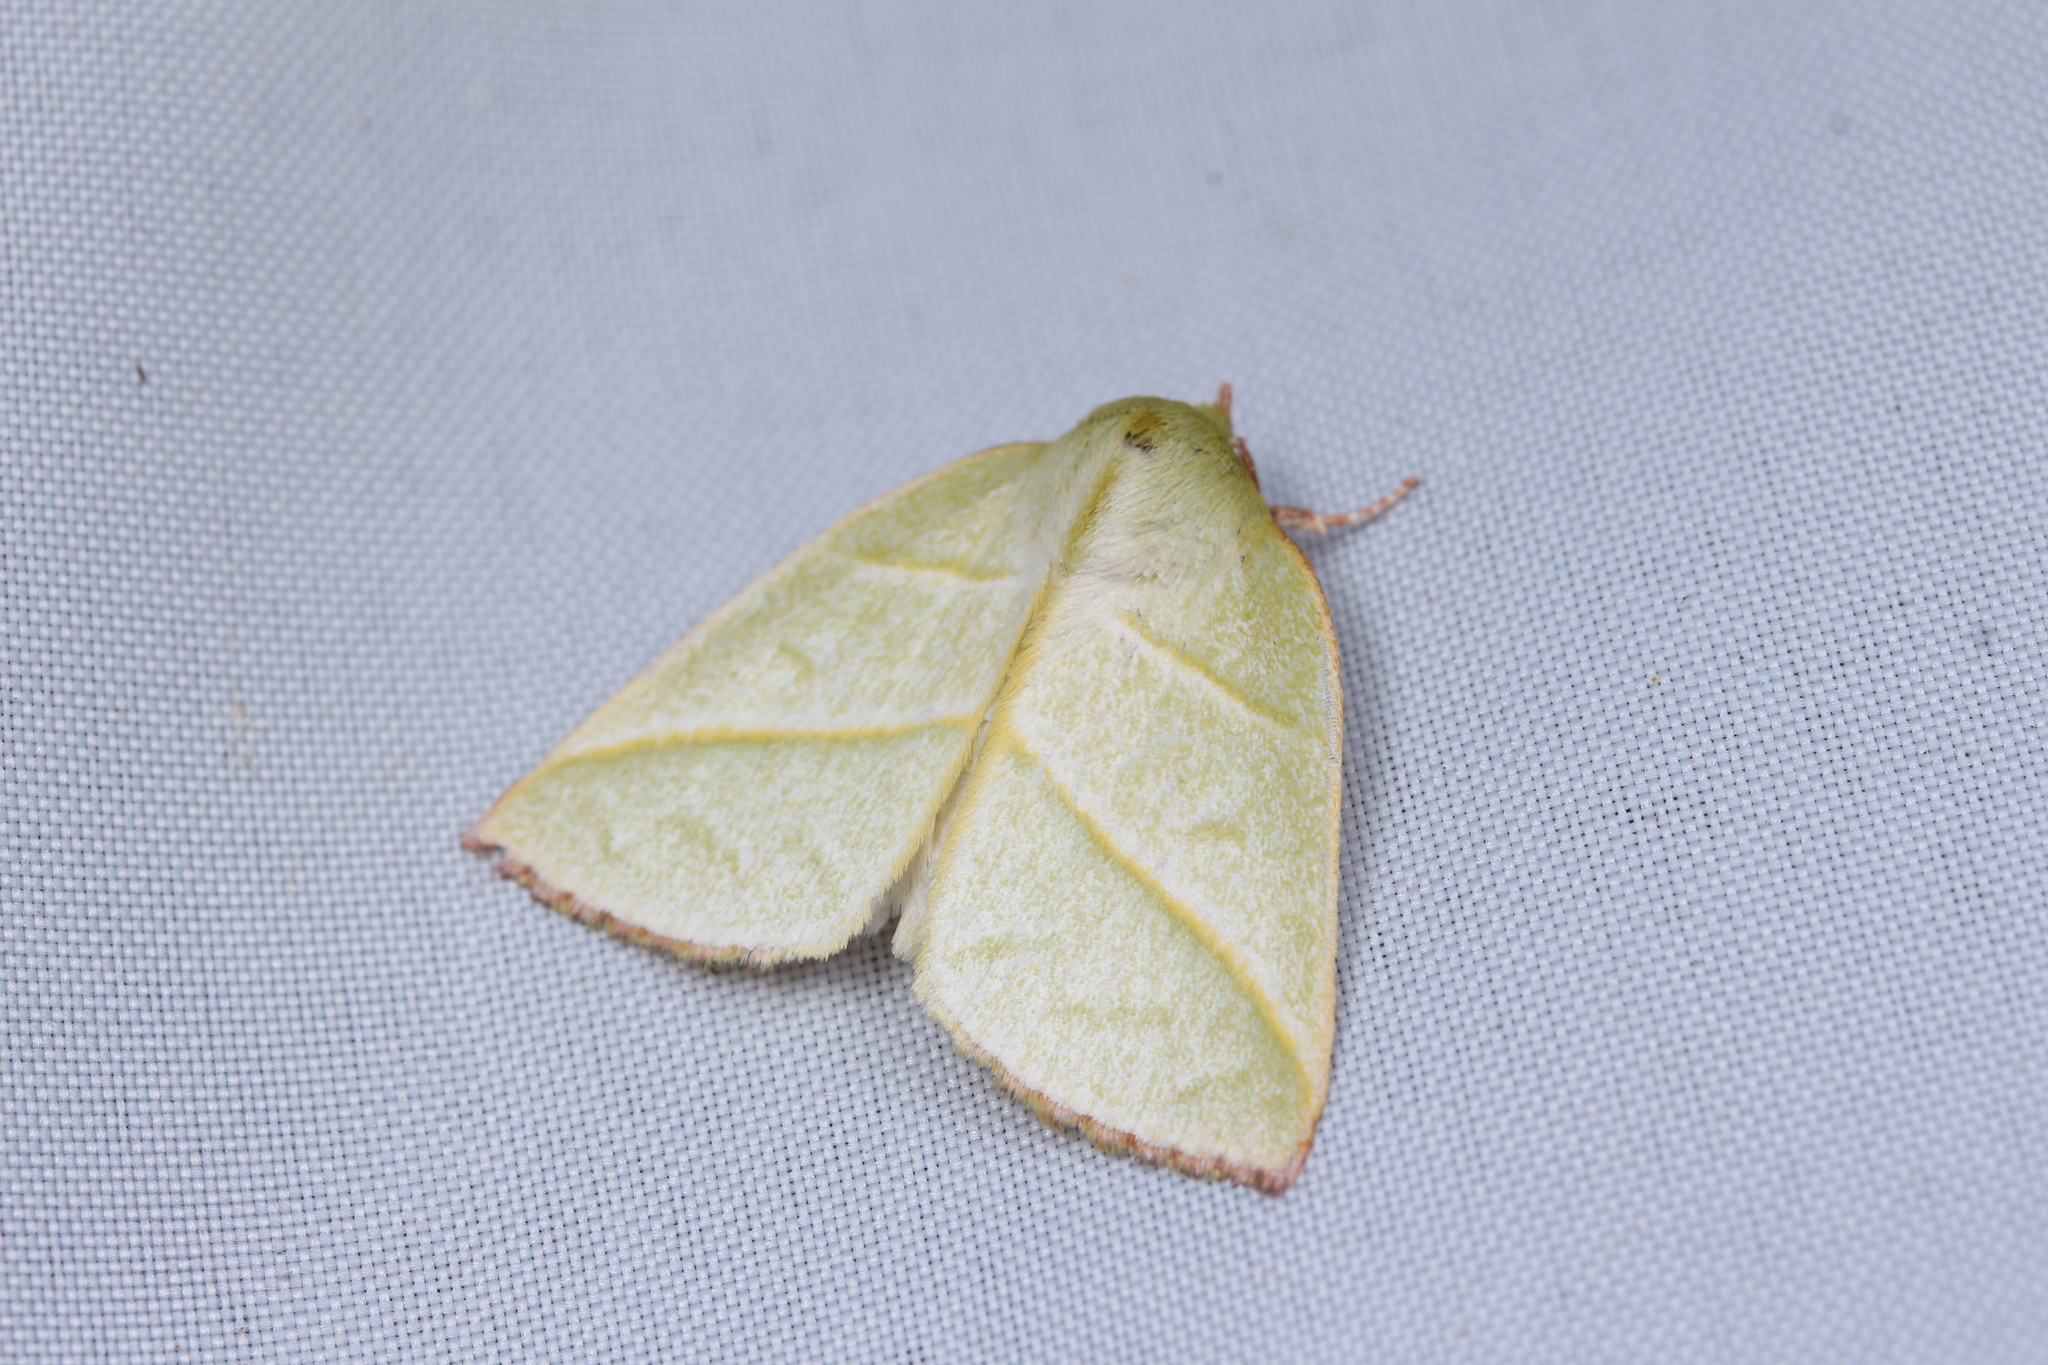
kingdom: Animalia
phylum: Arthropoda
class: Insecta
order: Lepidoptera
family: Nolidae
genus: Hylophilodes
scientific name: Hylophilodes tsukusensis
